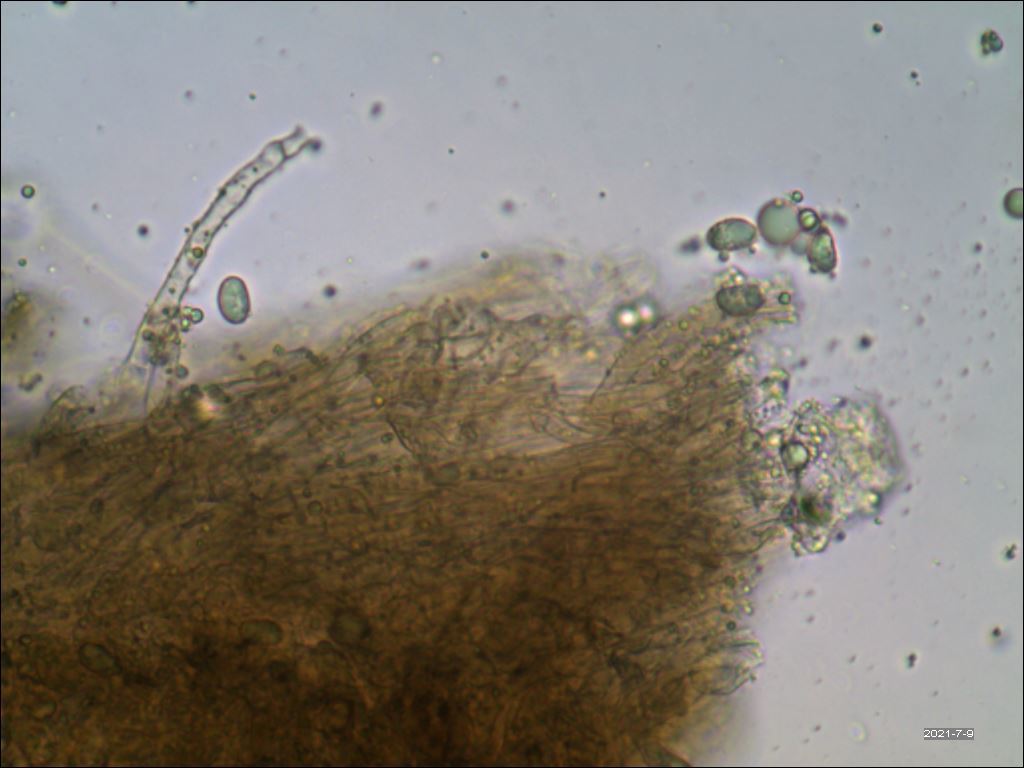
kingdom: Fungi
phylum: Basidiomycota
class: Agaricomycetes
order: Cantharellales
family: Hydnaceae
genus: Craterellus
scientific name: Craterellus cornucopioides
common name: Horn of plenty
